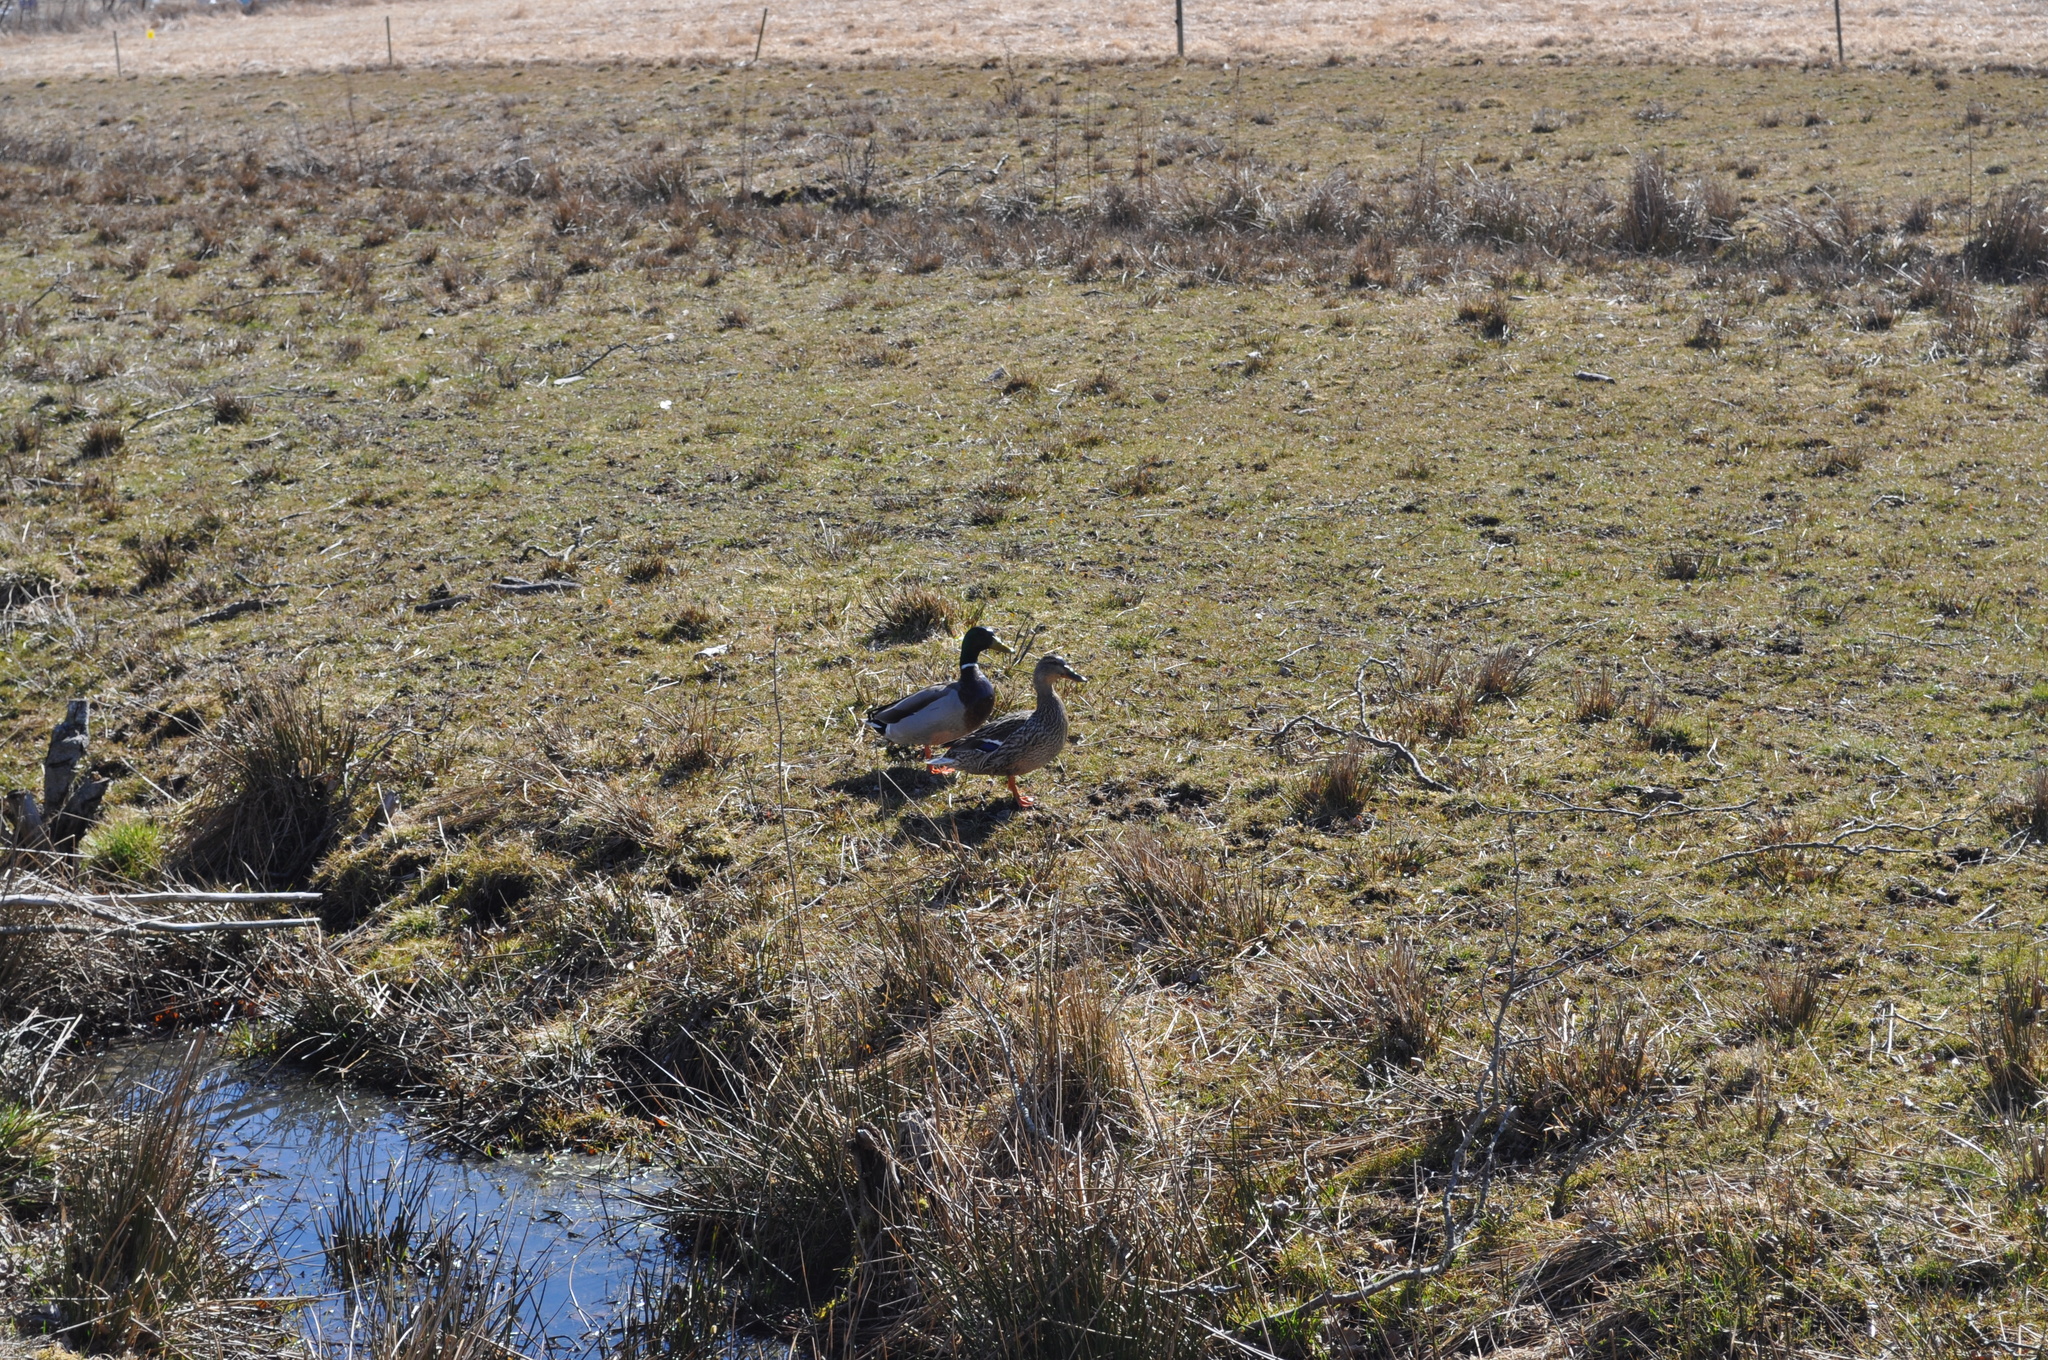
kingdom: Animalia
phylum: Chordata
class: Aves
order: Anseriformes
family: Anatidae
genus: Anas
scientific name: Anas platyrhynchos
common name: Mallard
